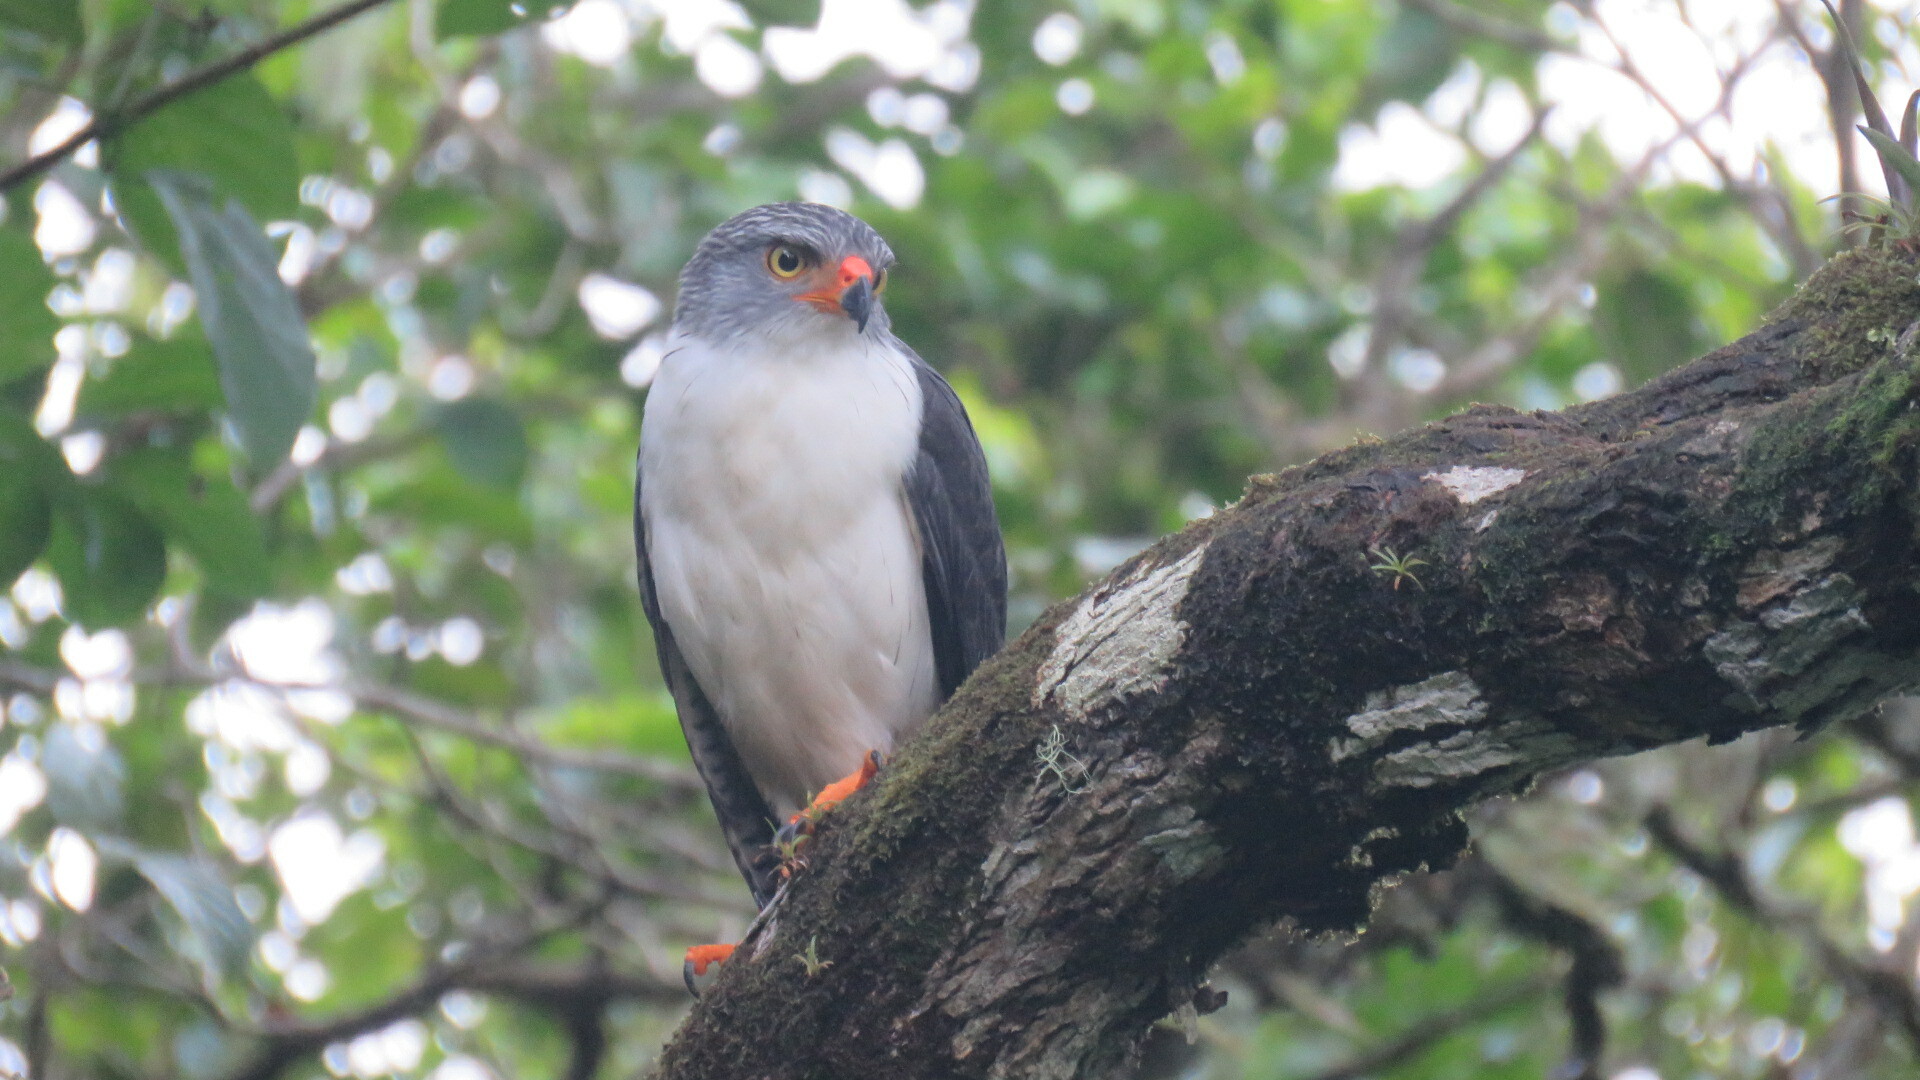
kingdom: Animalia
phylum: Chordata
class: Aves
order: Accipitriformes
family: Accipitridae
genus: Leucopternis
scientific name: Leucopternis semiplumbeus
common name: Semiplumbeous hawk
